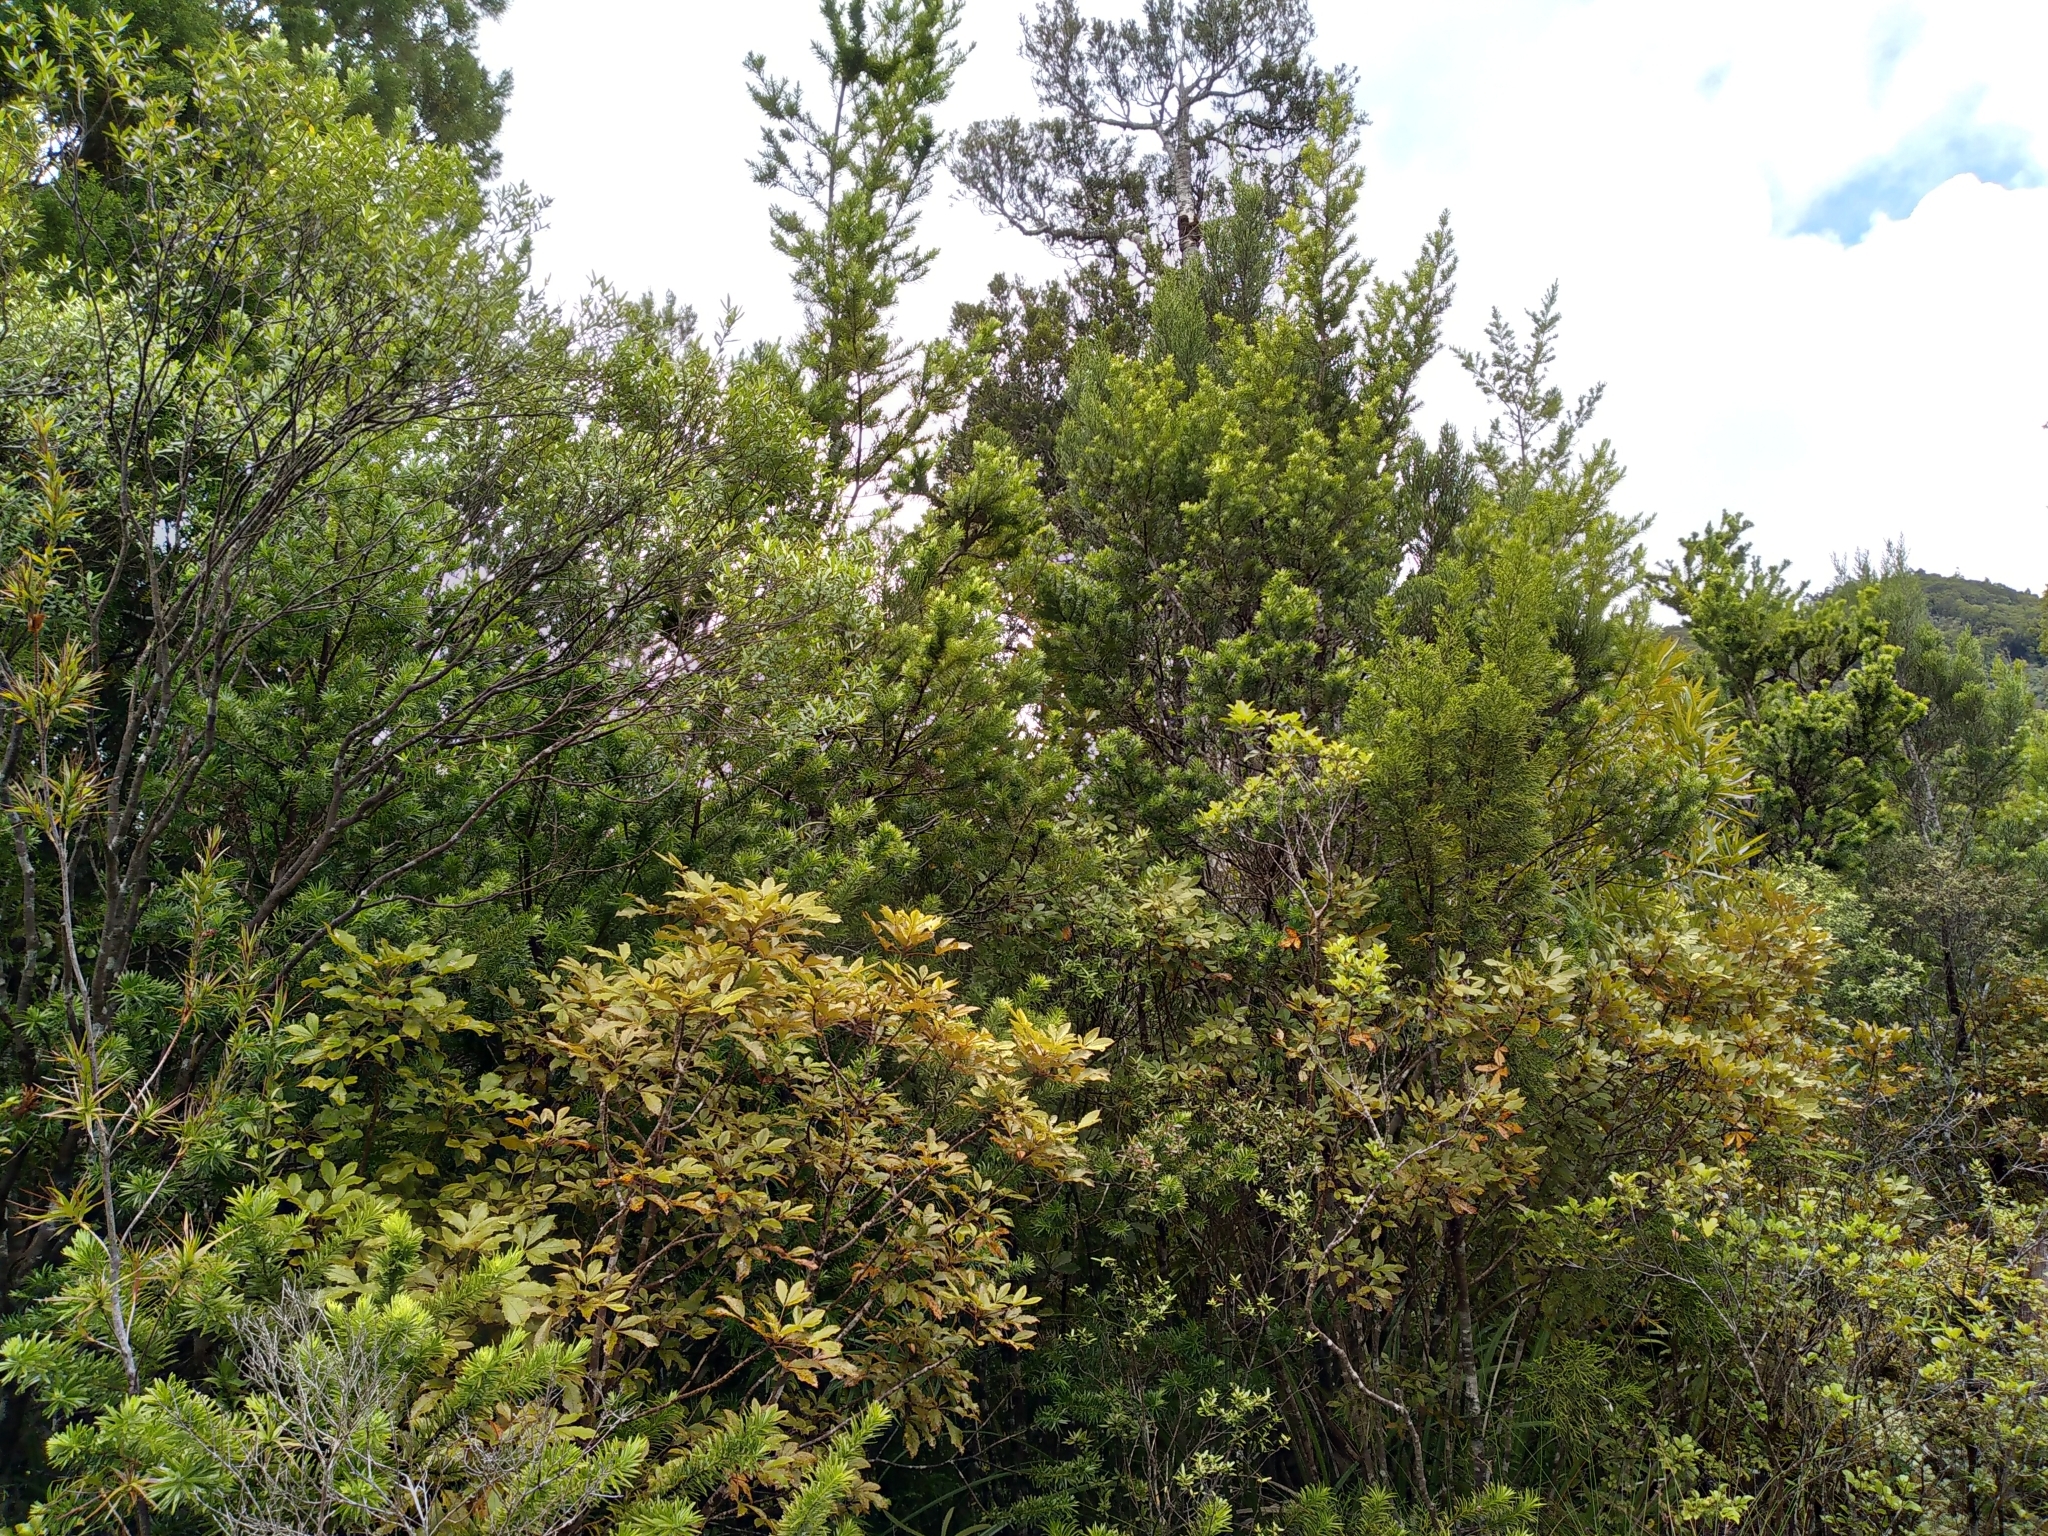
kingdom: Plantae
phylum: Tracheophyta
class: Pinopsida
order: Pinales
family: Podocarpaceae
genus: Halocarpus
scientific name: Halocarpus kirkii
